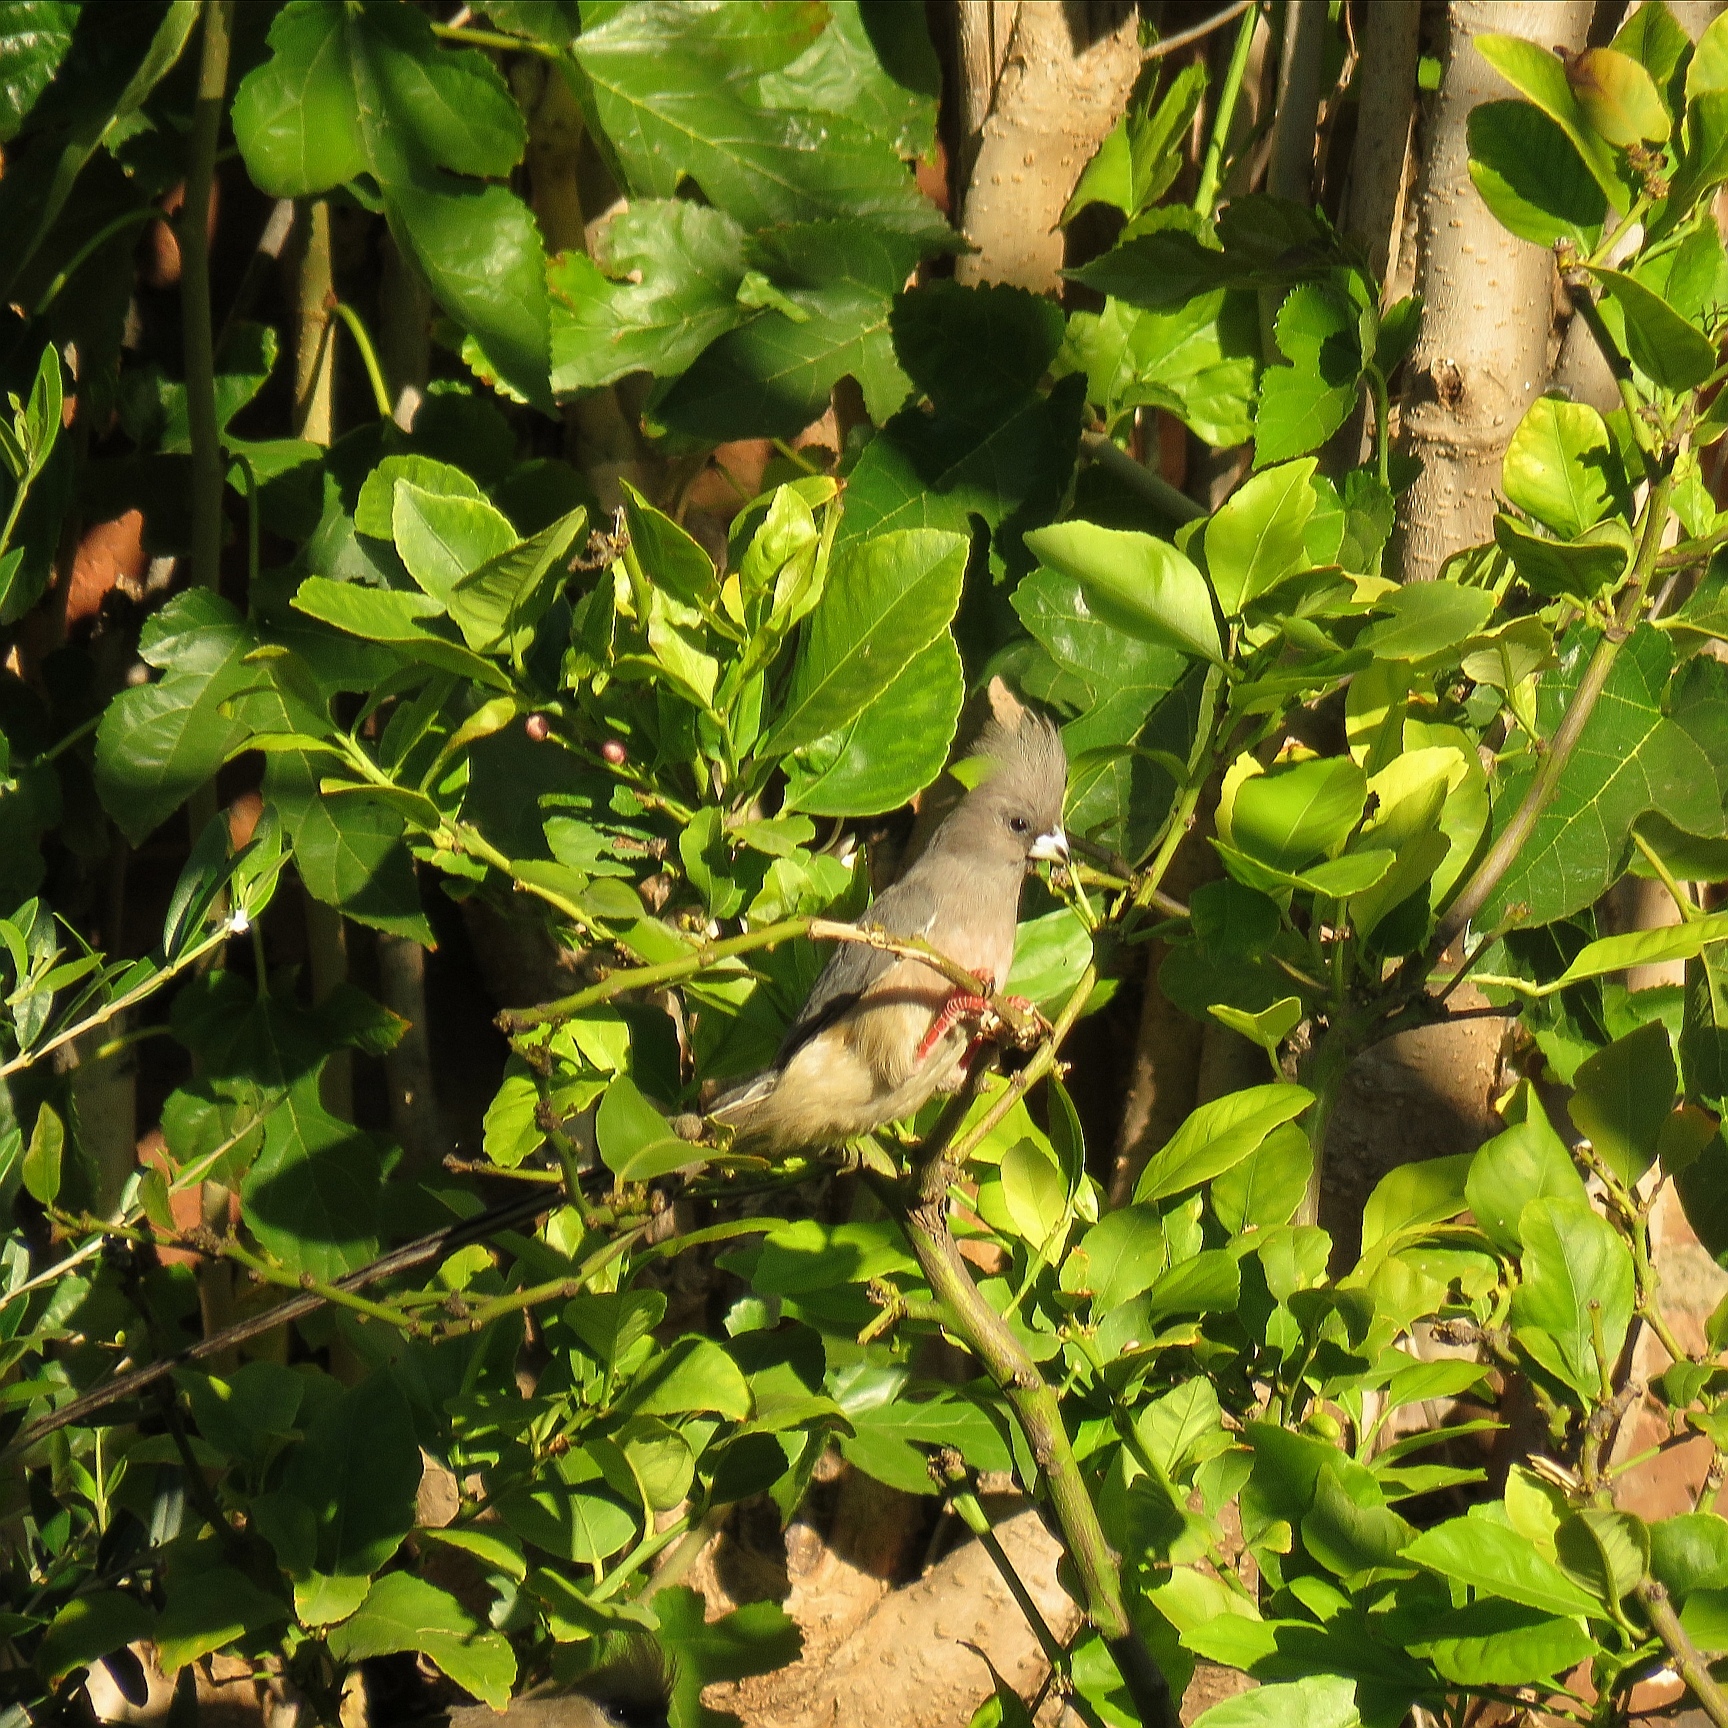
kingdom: Animalia
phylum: Chordata
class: Aves
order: Coliiformes
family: Coliidae
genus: Colius
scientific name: Colius colius
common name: White-backed mousebird
